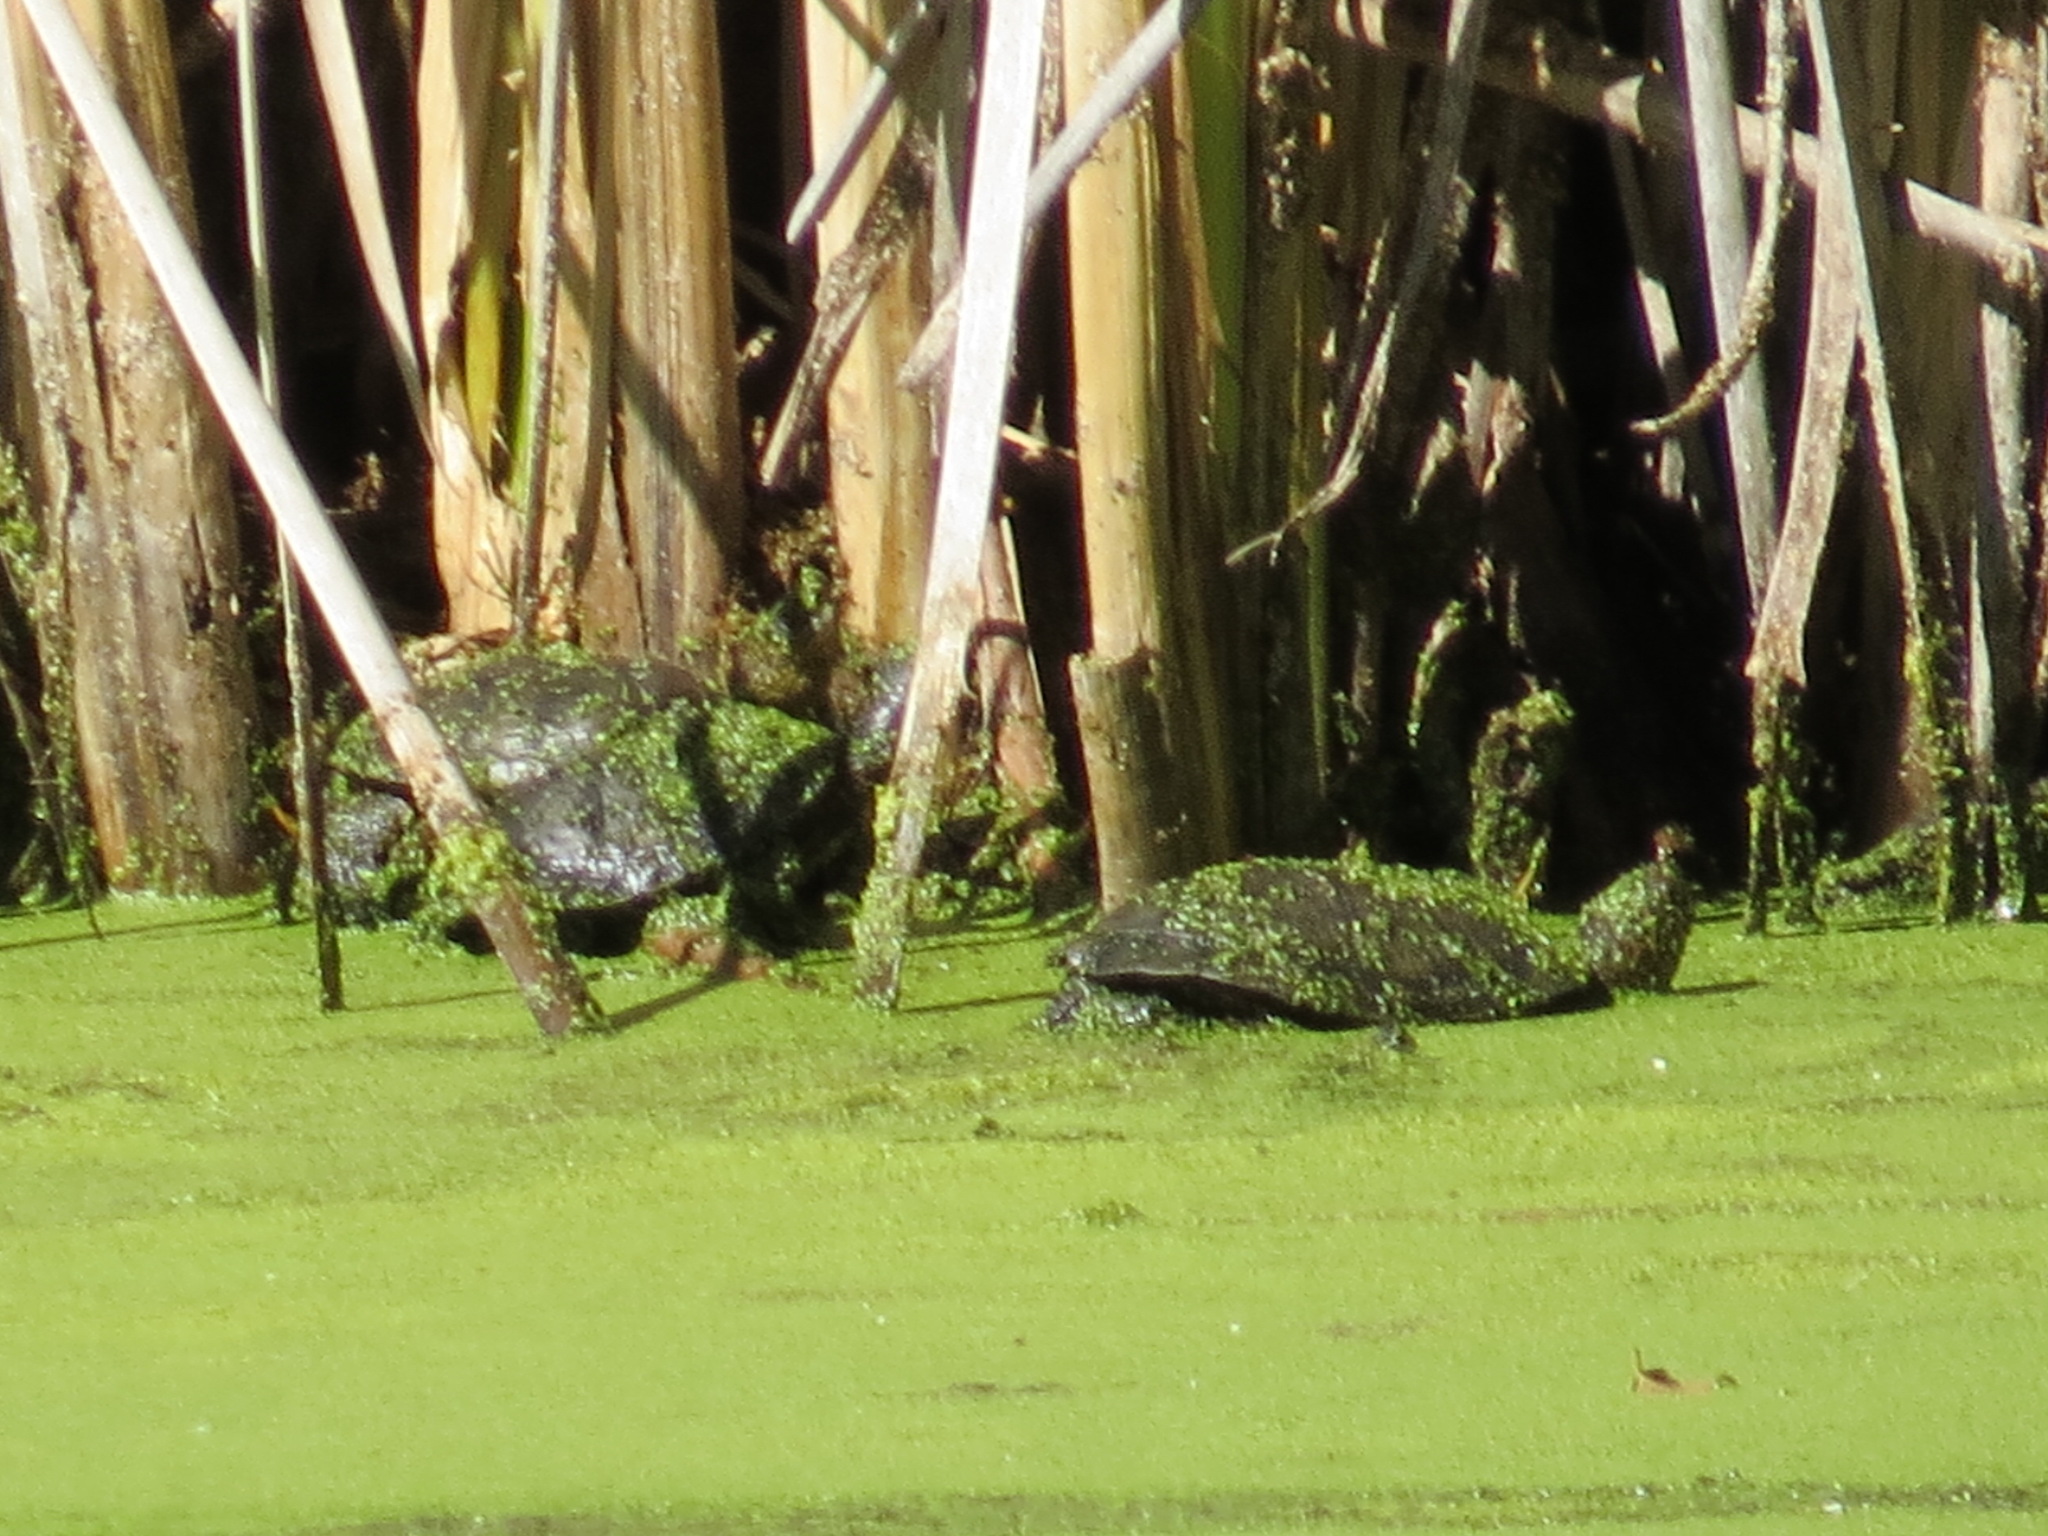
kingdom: Animalia
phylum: Chordata
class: Testudines
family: Emydidae
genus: Actinemys
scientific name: Actinemys marmorata
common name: Western pond turtle
